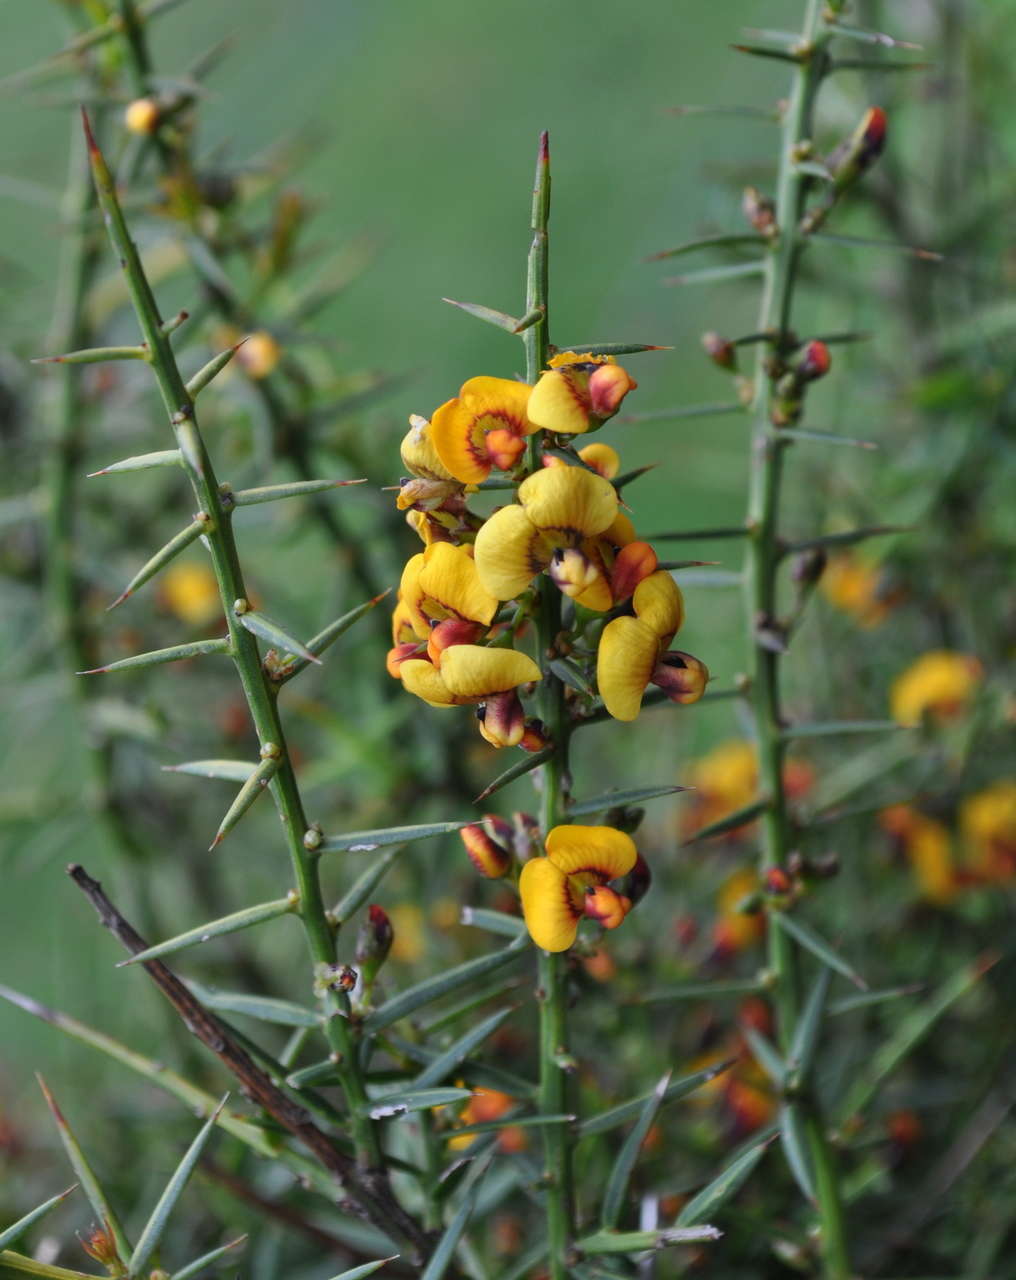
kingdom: Plantae
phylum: Tracheophyta
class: Magnoliopsida
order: Fabales
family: Fabaceae
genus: Daviesia
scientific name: Daviesia ulicifolia
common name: Gorse bitter-pea
